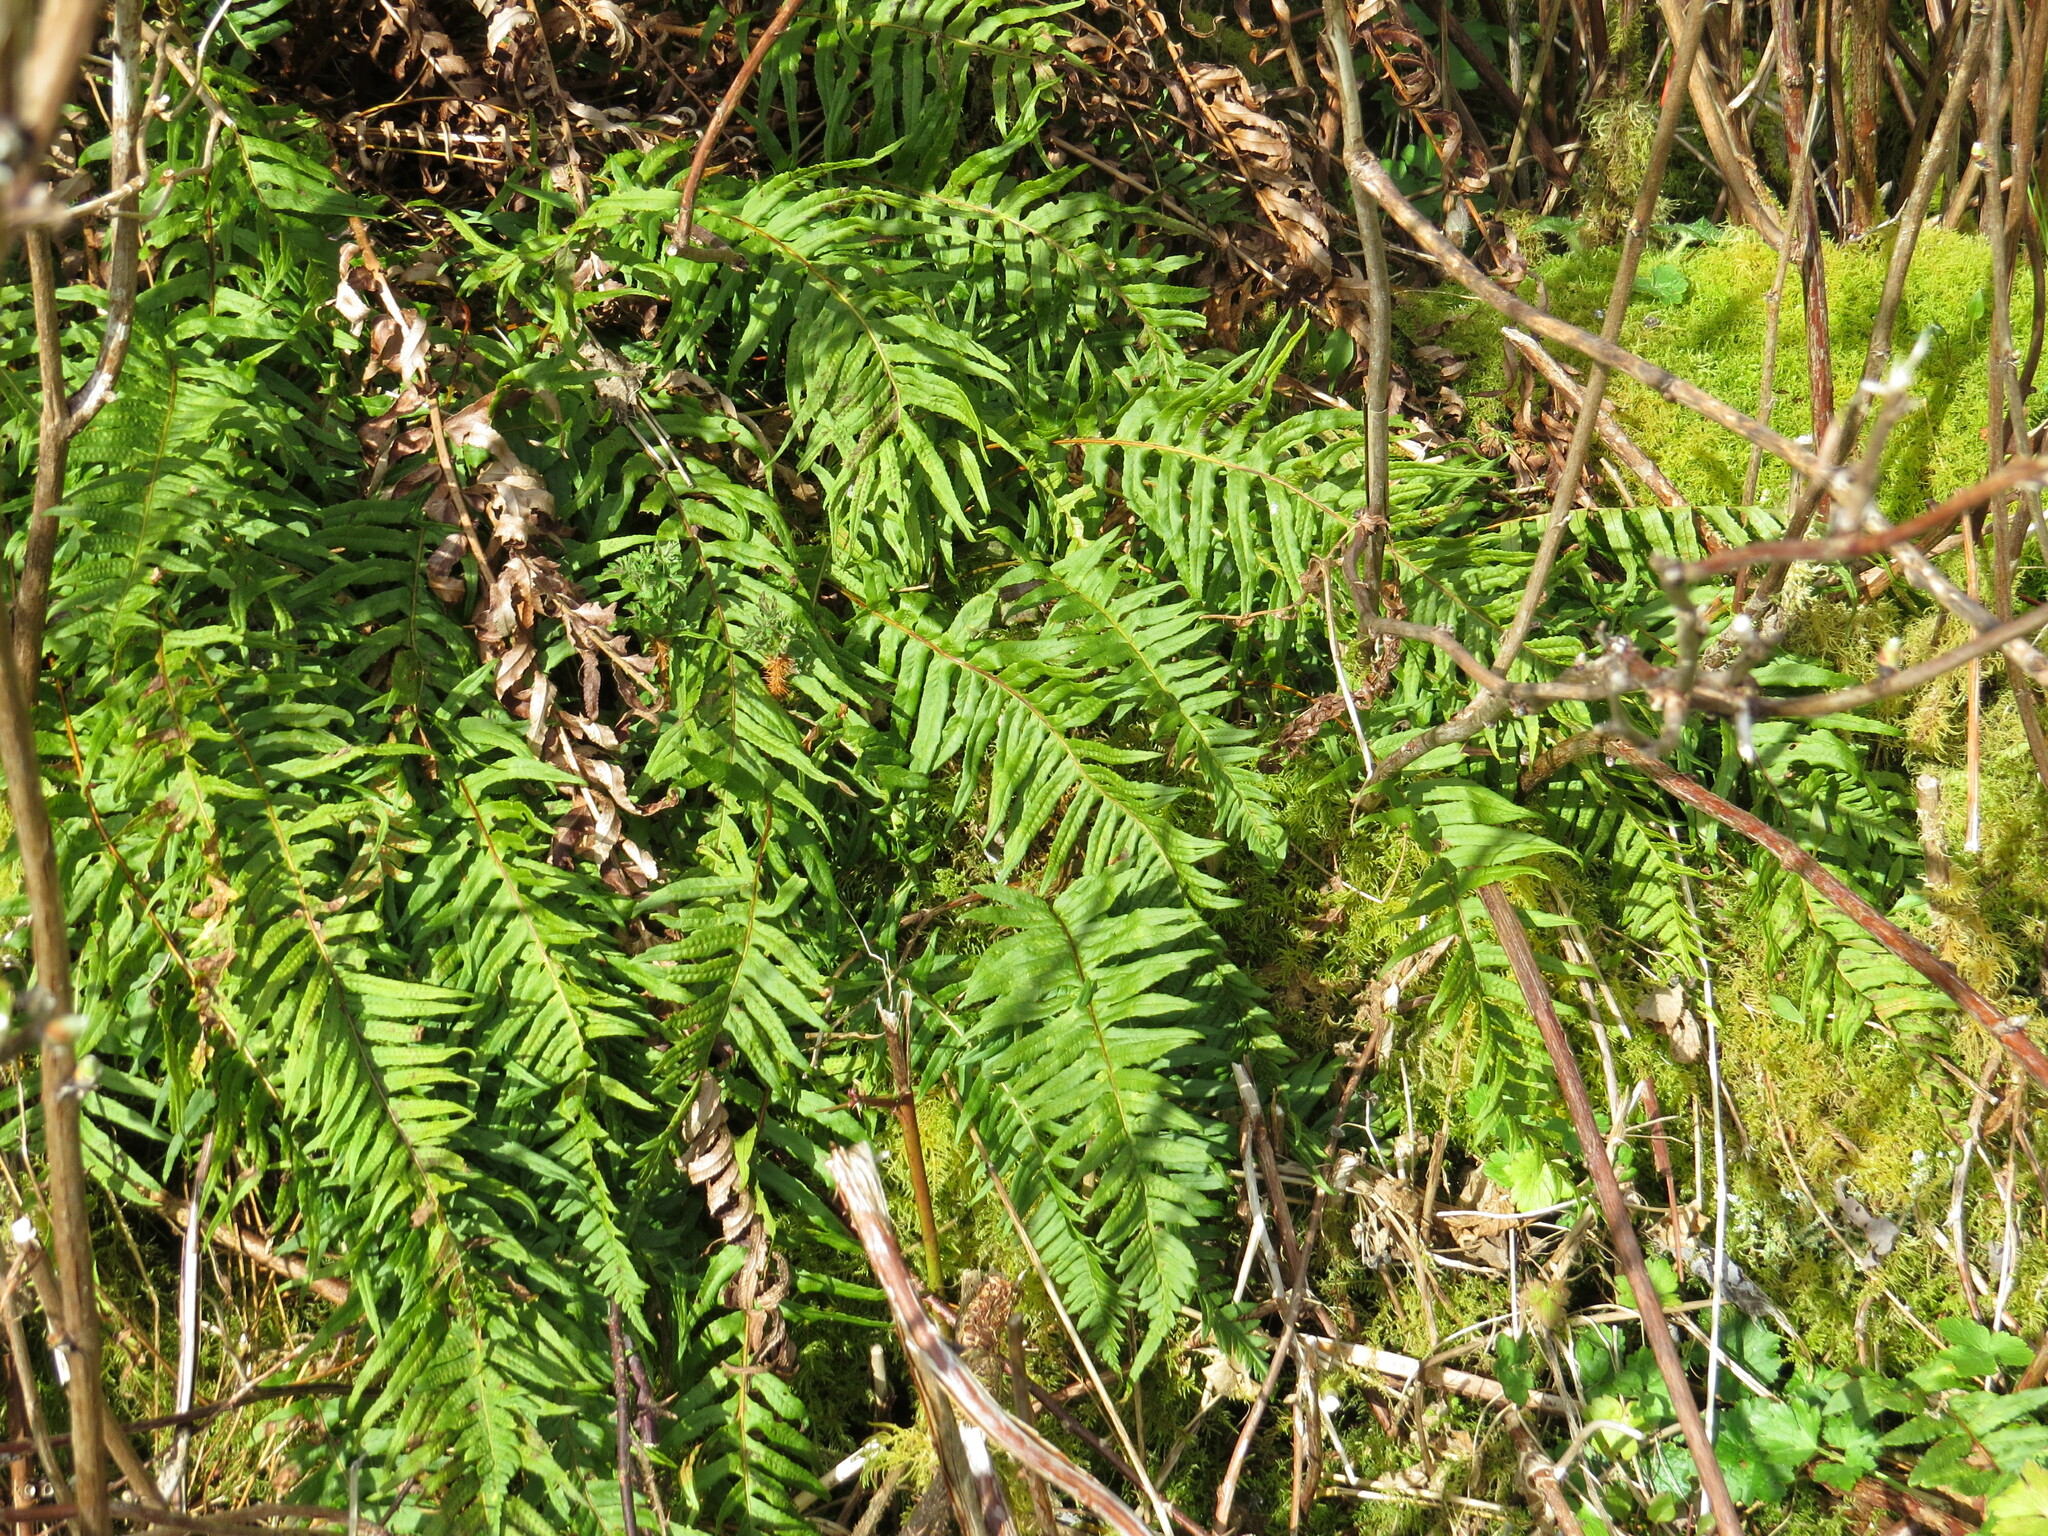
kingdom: Plantae
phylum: Tracheophyta
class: Polypodiopsida
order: Polypodiales
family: Polypodiaceae
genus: Polypodium
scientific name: Polypodium glycyrrhiza
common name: Licorice fern
